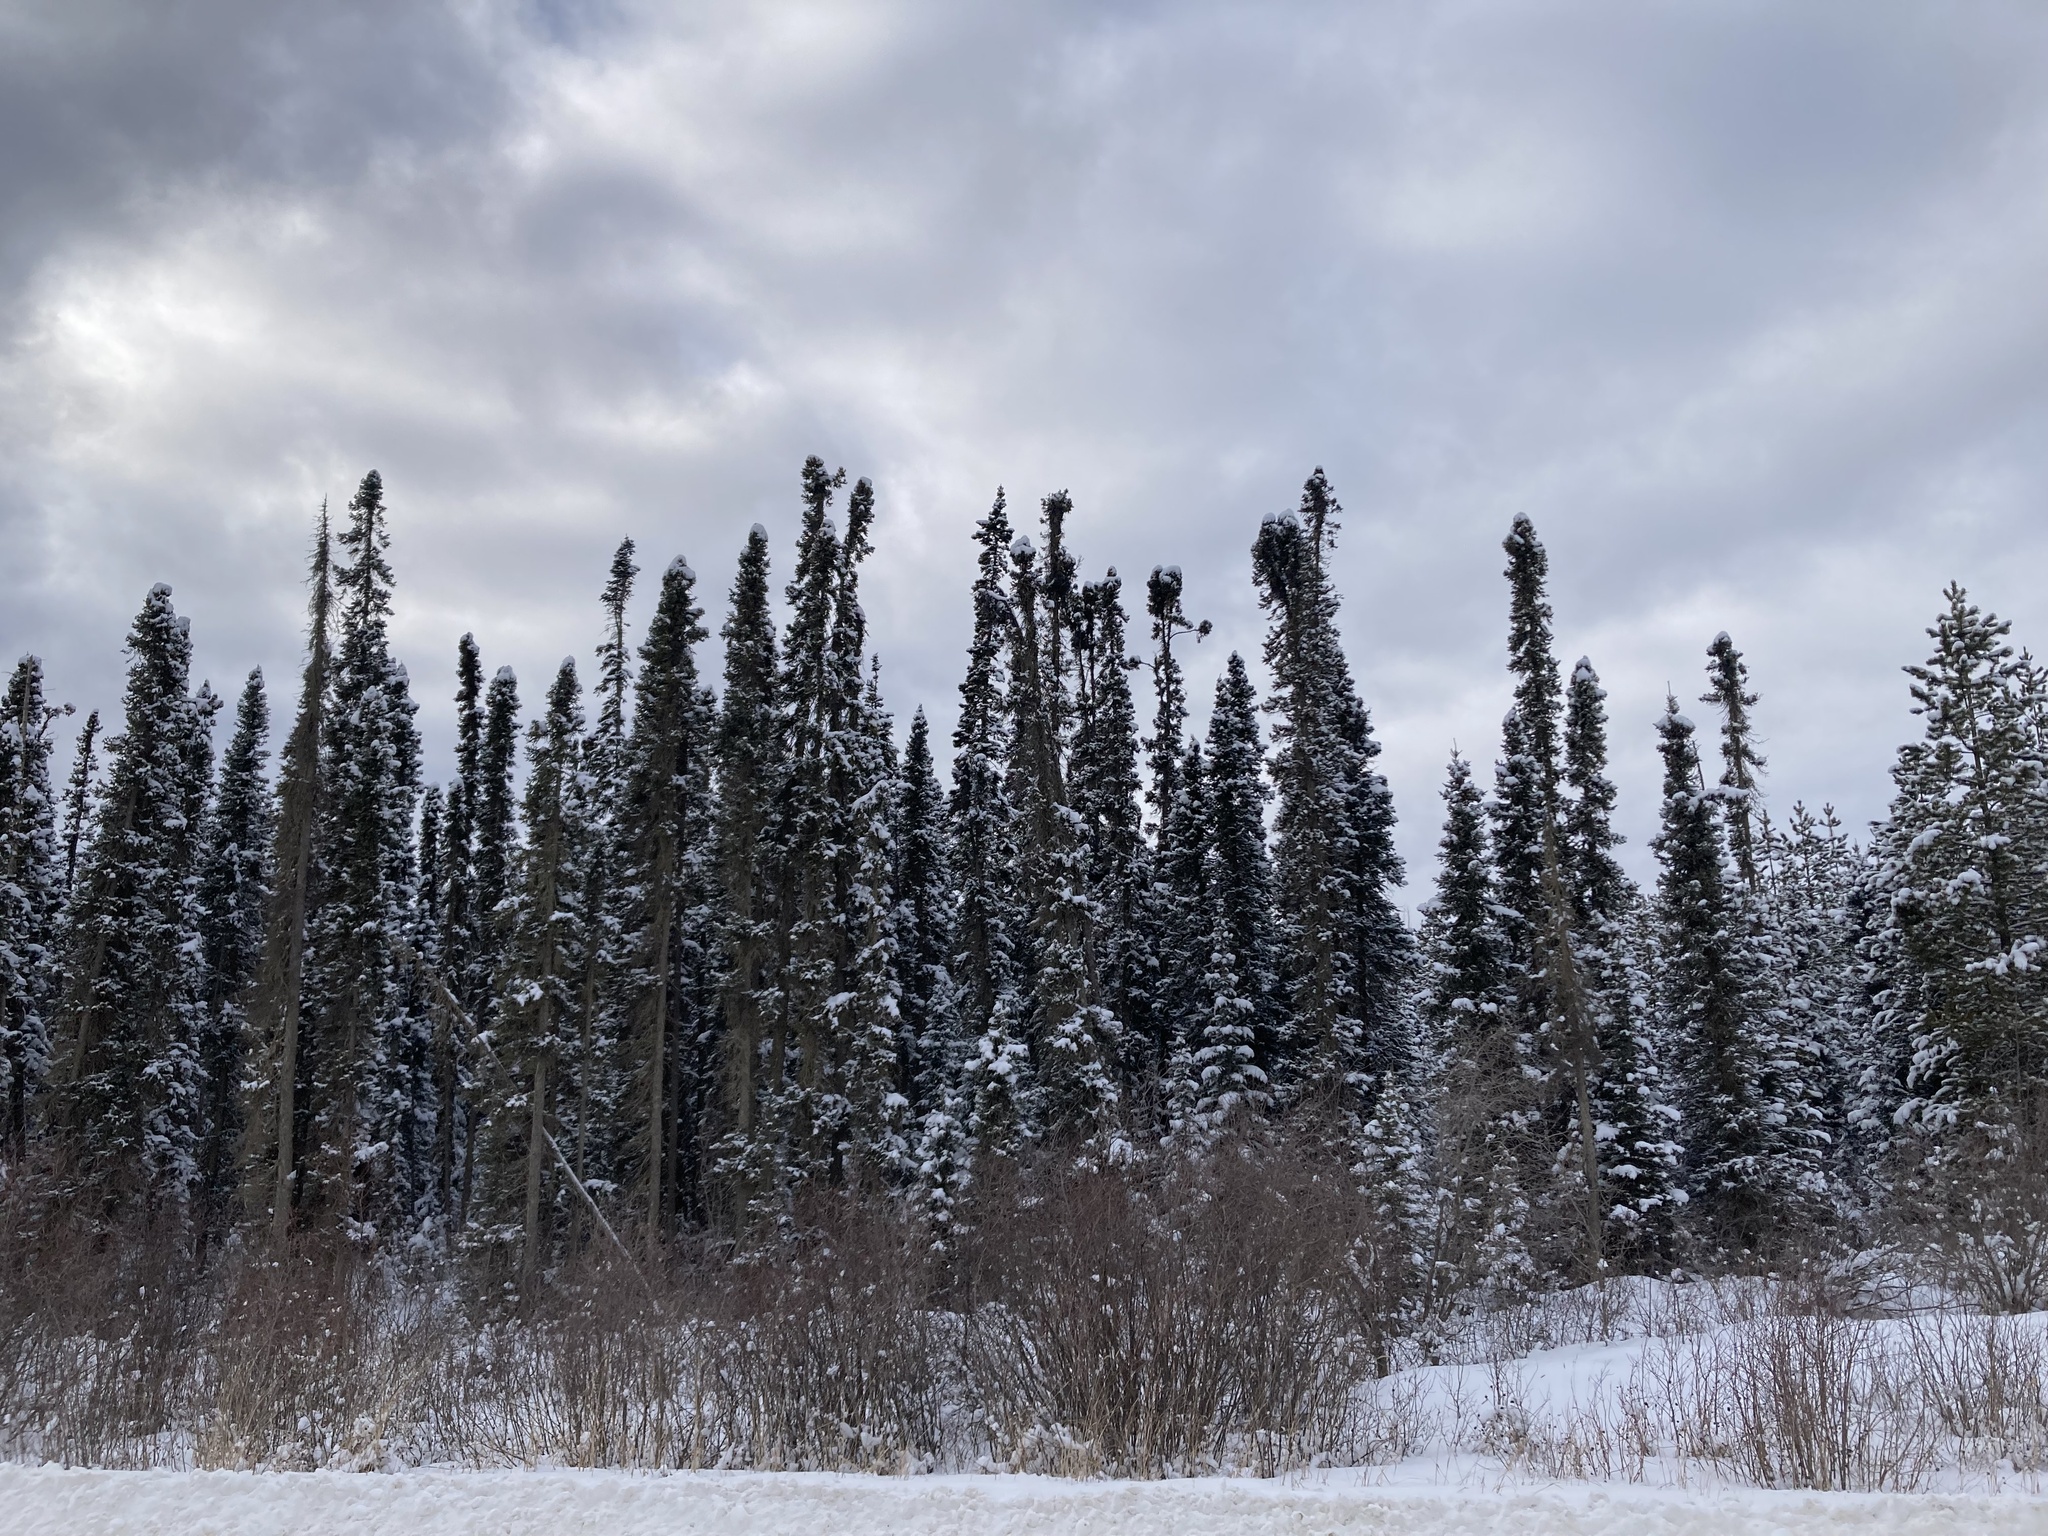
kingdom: Plantae
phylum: Tracheophyta
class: Pinopsida
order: Pinales
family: Pinaceae
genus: Picea
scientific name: Picea mariana
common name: Black spruce
